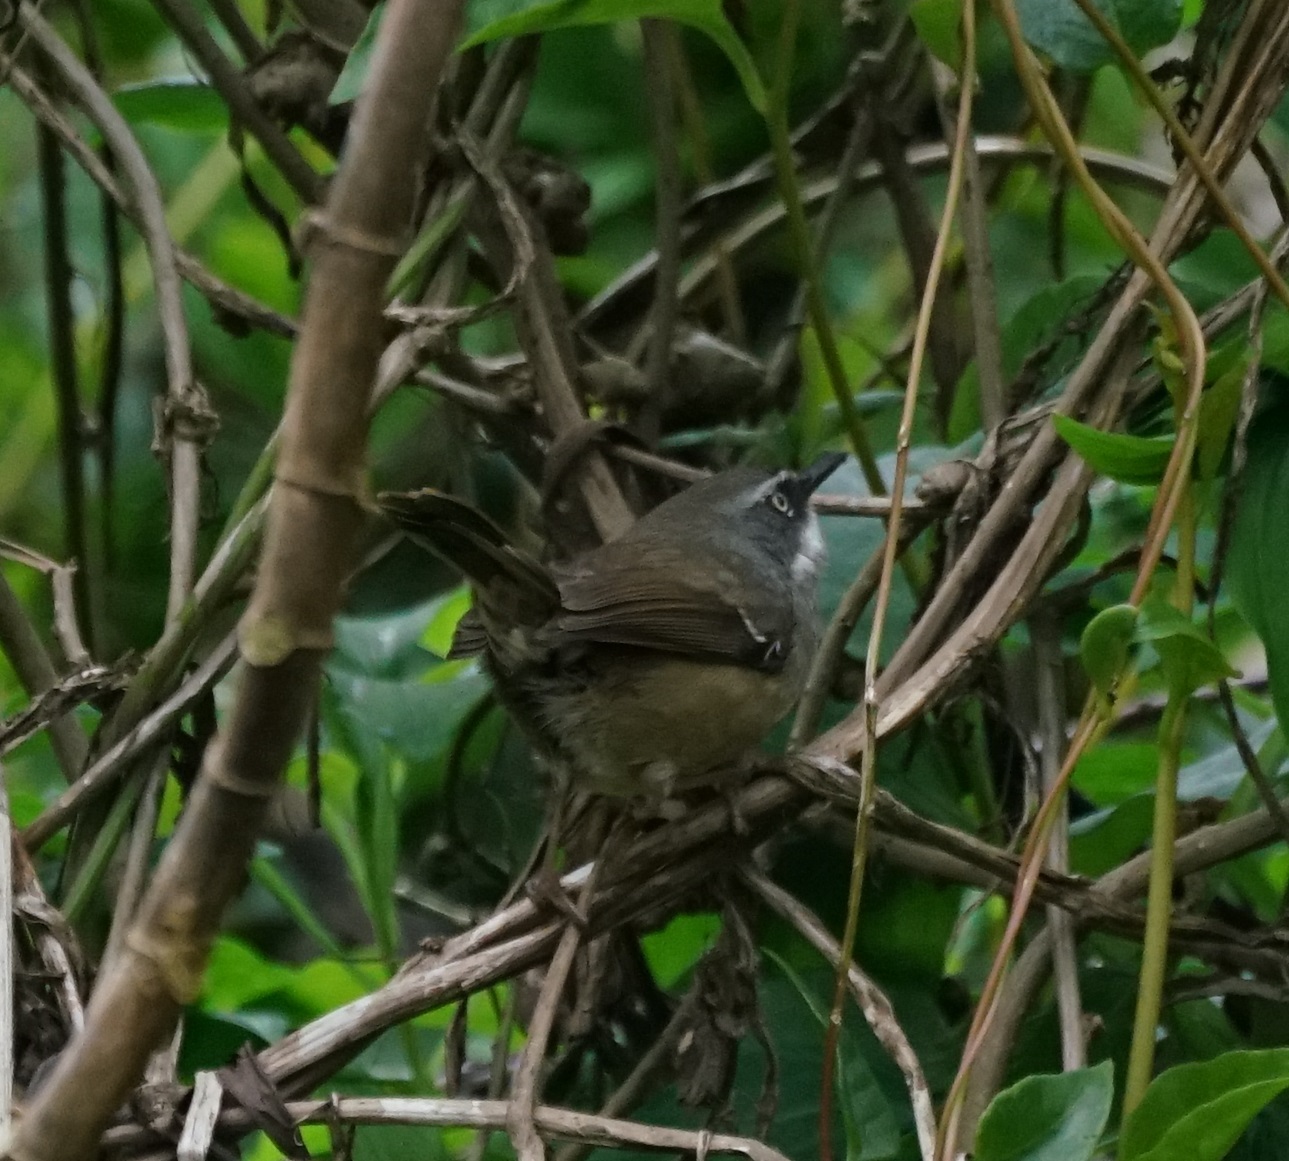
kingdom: Animalia
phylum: Chordata
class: Aves
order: Passeriformes
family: Acanthizidae
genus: Sericornis
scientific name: Sericornis frontalis
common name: White-browed scrubwren
